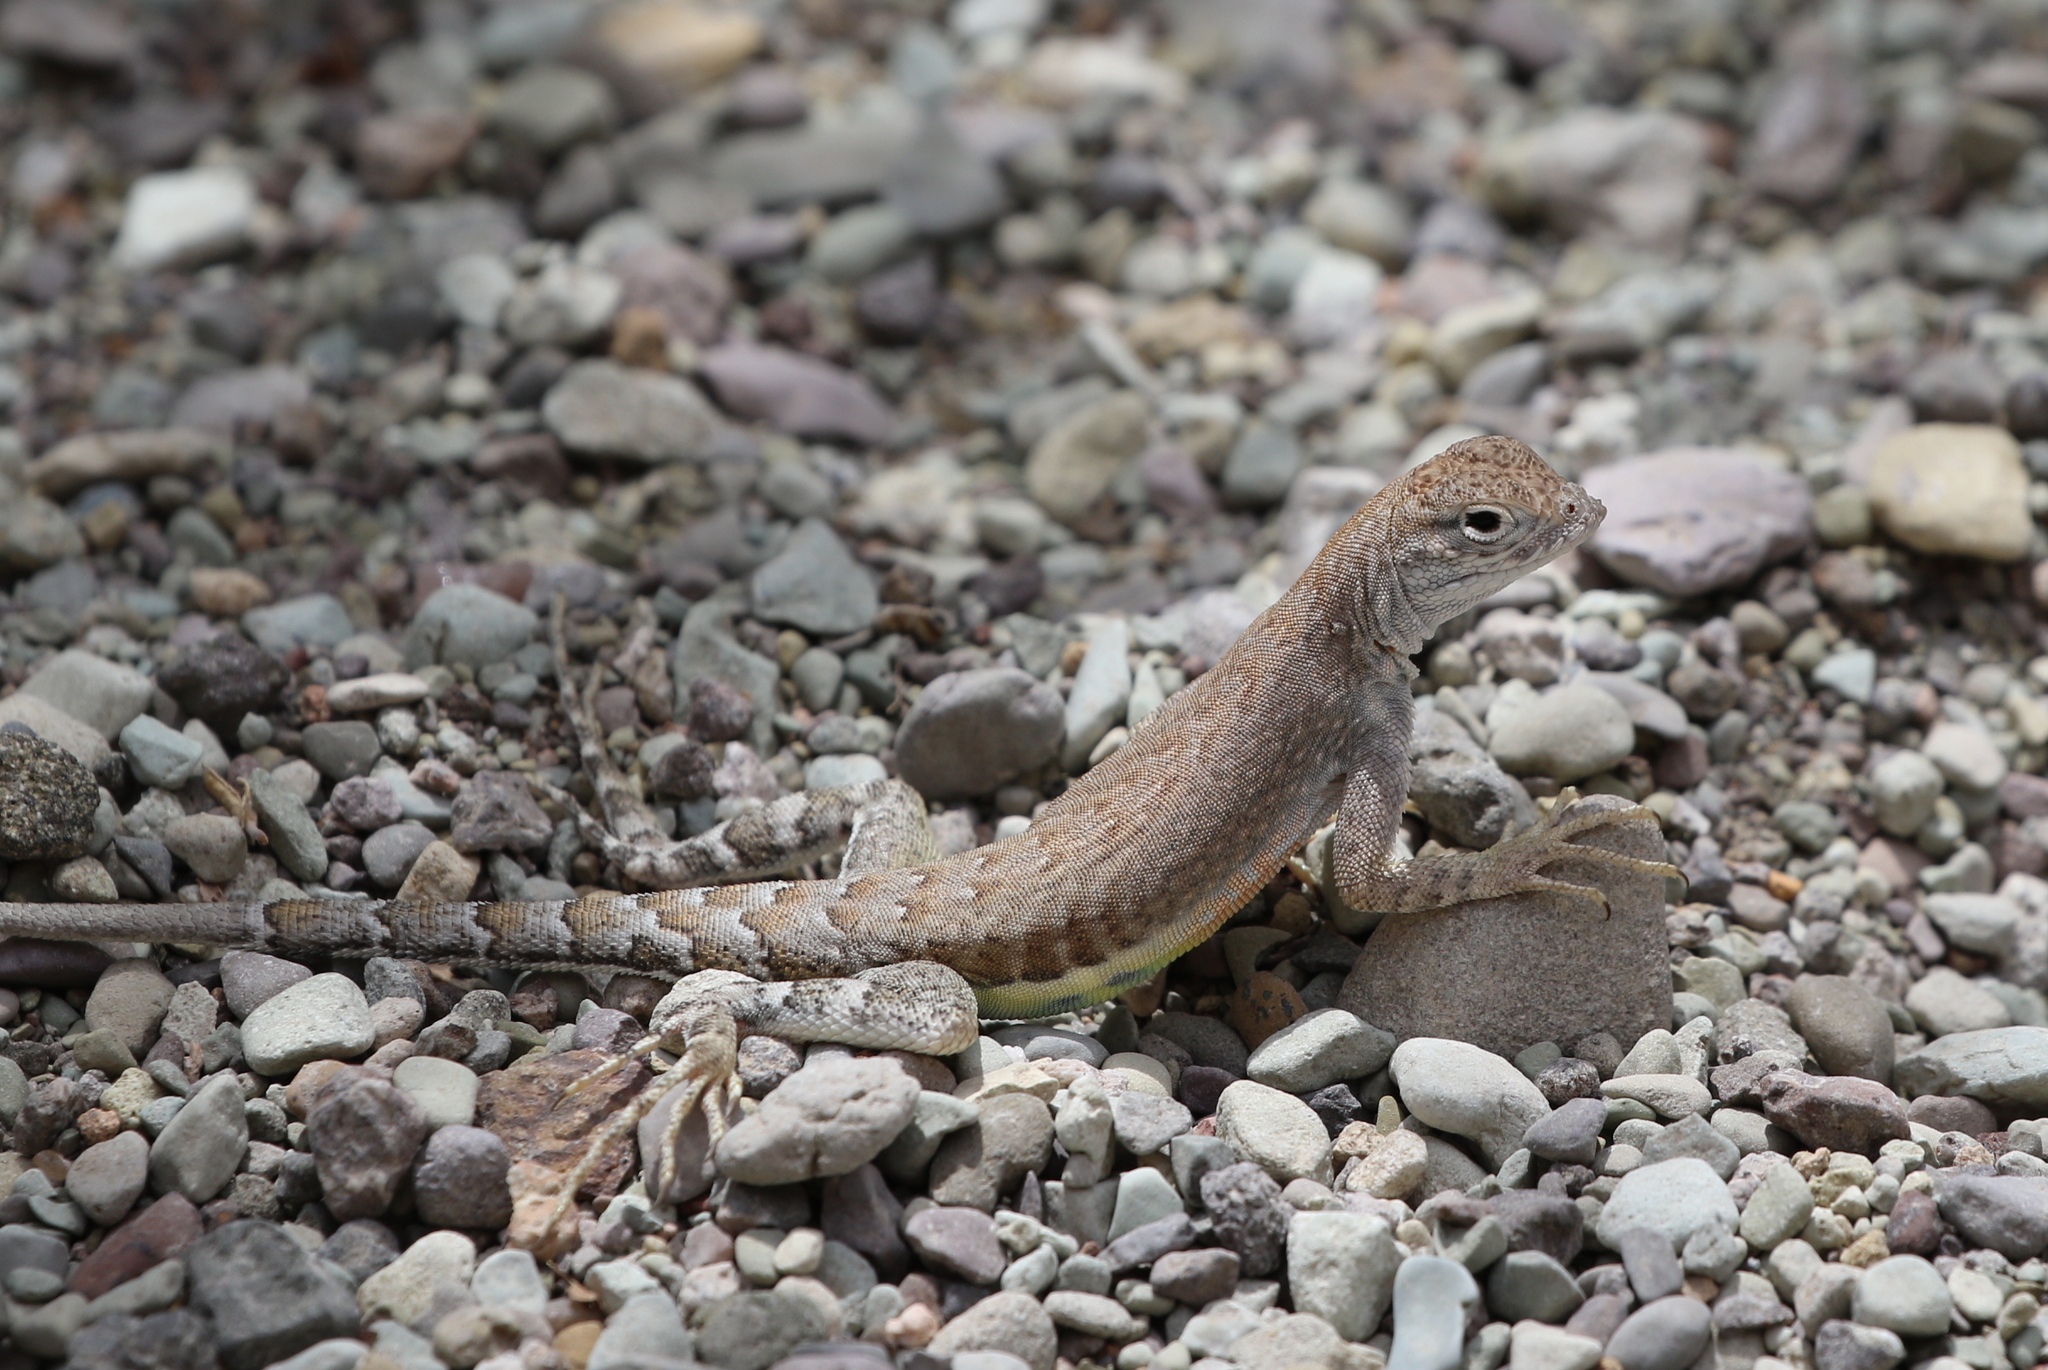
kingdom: Animalia
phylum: Chordata
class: Squamata
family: Phrynosomatidae
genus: Cophosaurus
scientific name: Cophosaurus texanus
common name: Greater earless lizard
